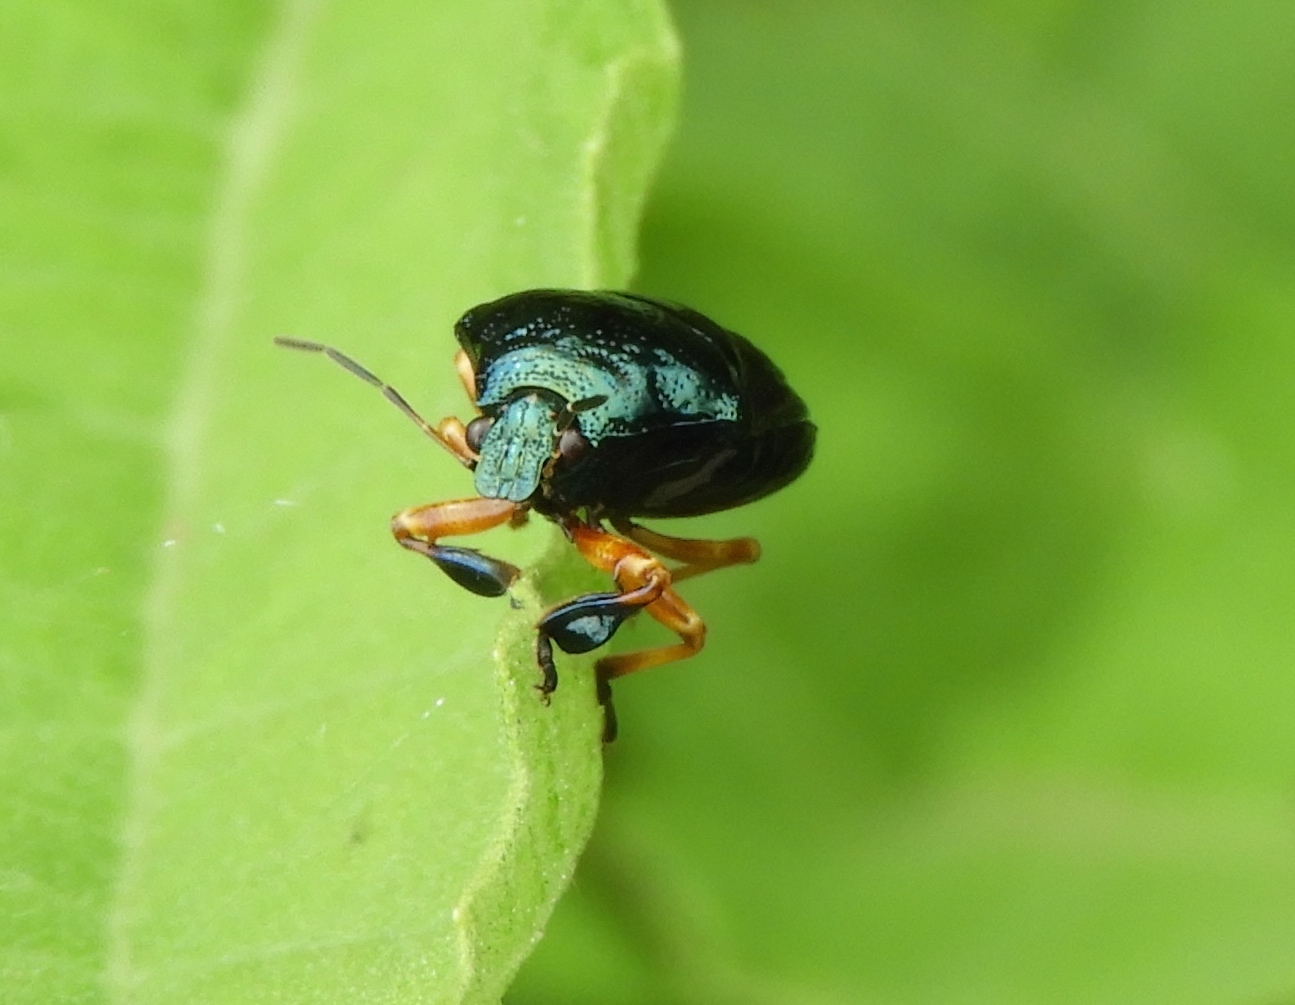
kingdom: Animalia
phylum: Arthropoda
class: Insecta
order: Hemiptera
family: Pentatomidae
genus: Stiretrus
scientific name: Stiretrus
